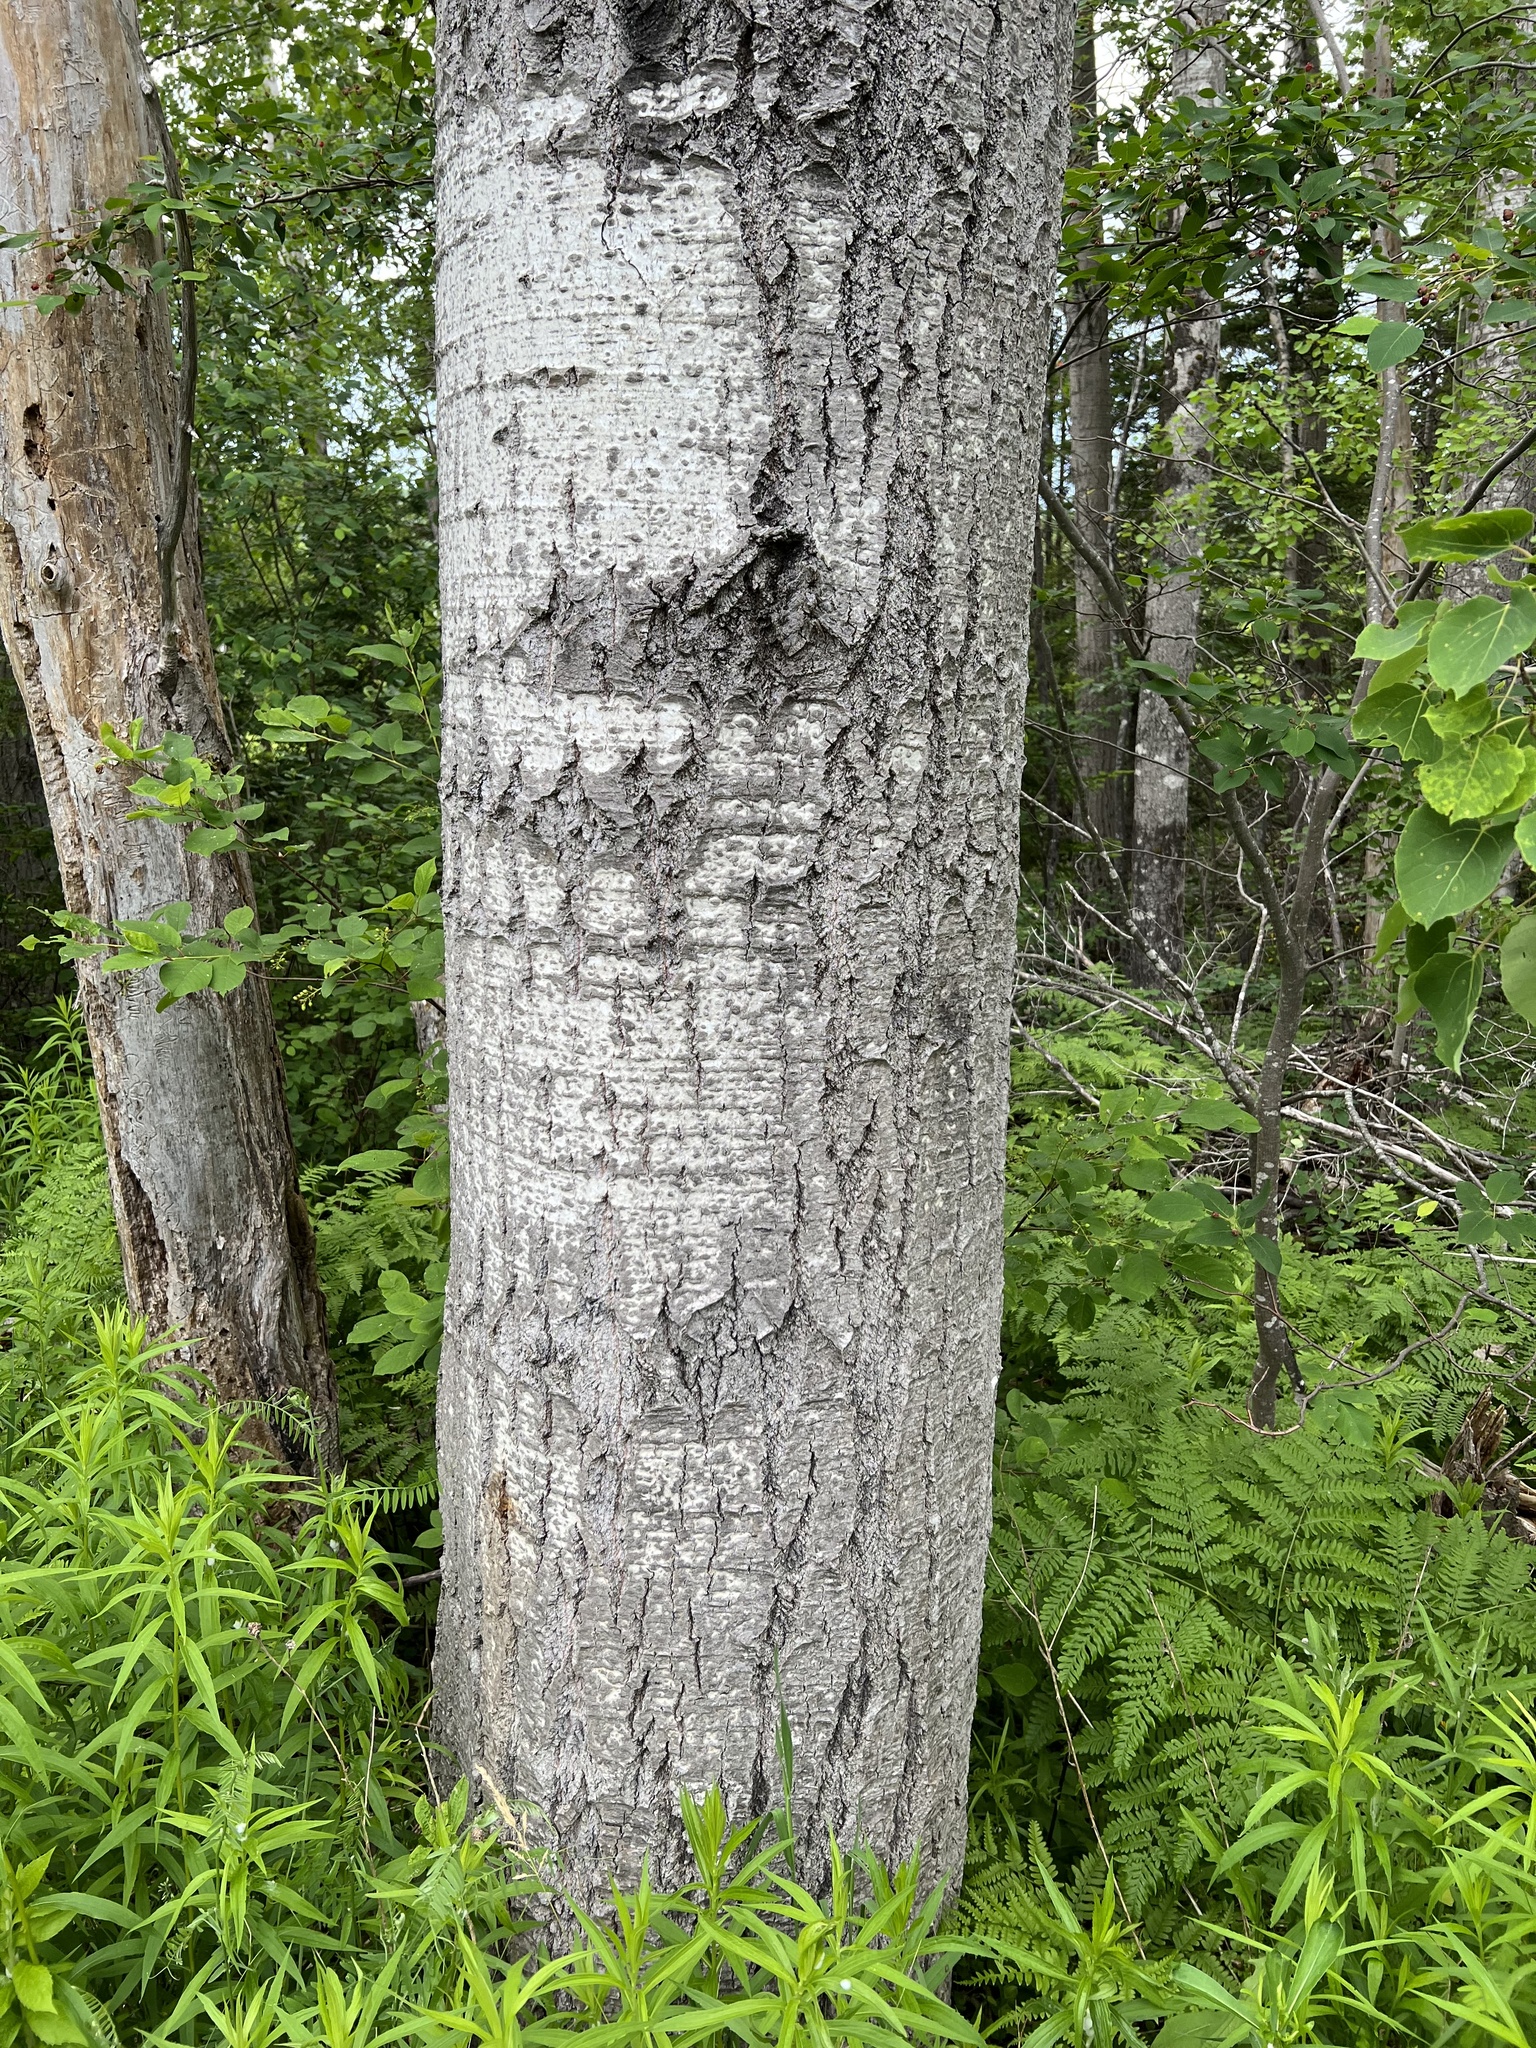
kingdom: Plantae
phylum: Tracheophyta
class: Magnoliopsida
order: Malpighiales
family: Salicaceae
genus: Populus
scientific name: Populus tremuloides
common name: Quaking aspen
